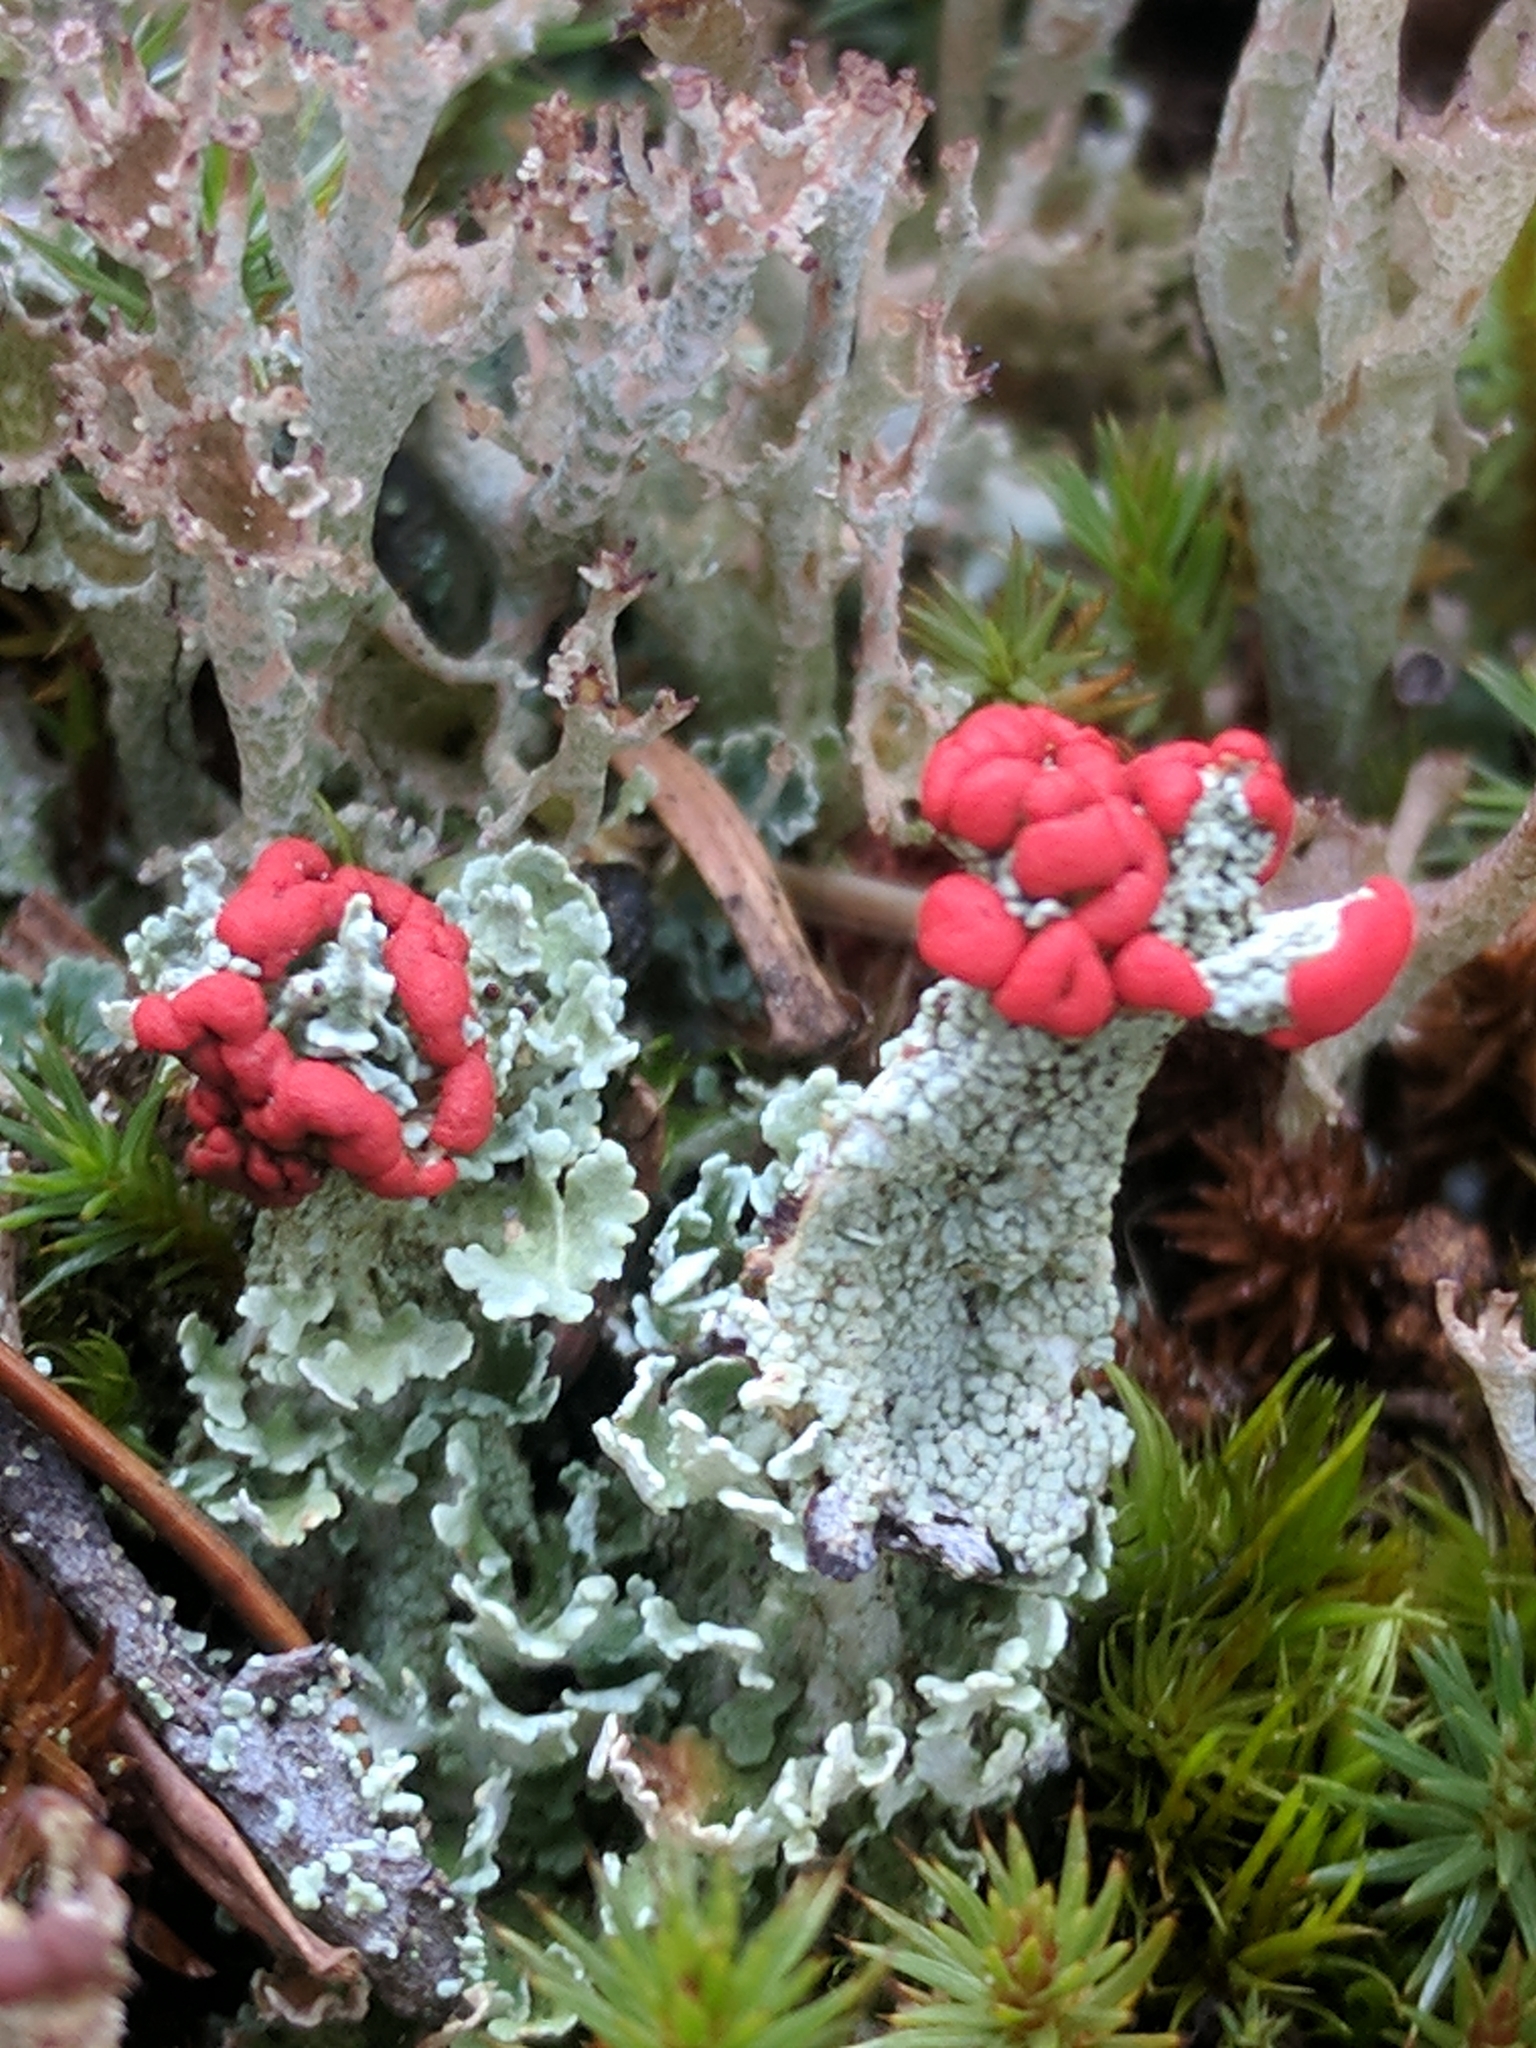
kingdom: Fungi
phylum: Ascomycota
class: Lecanoromycetes
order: Lecanorales
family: Cladoniaceae
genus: Cladonia
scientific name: Cladonia cristatella
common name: British soldier lichen
